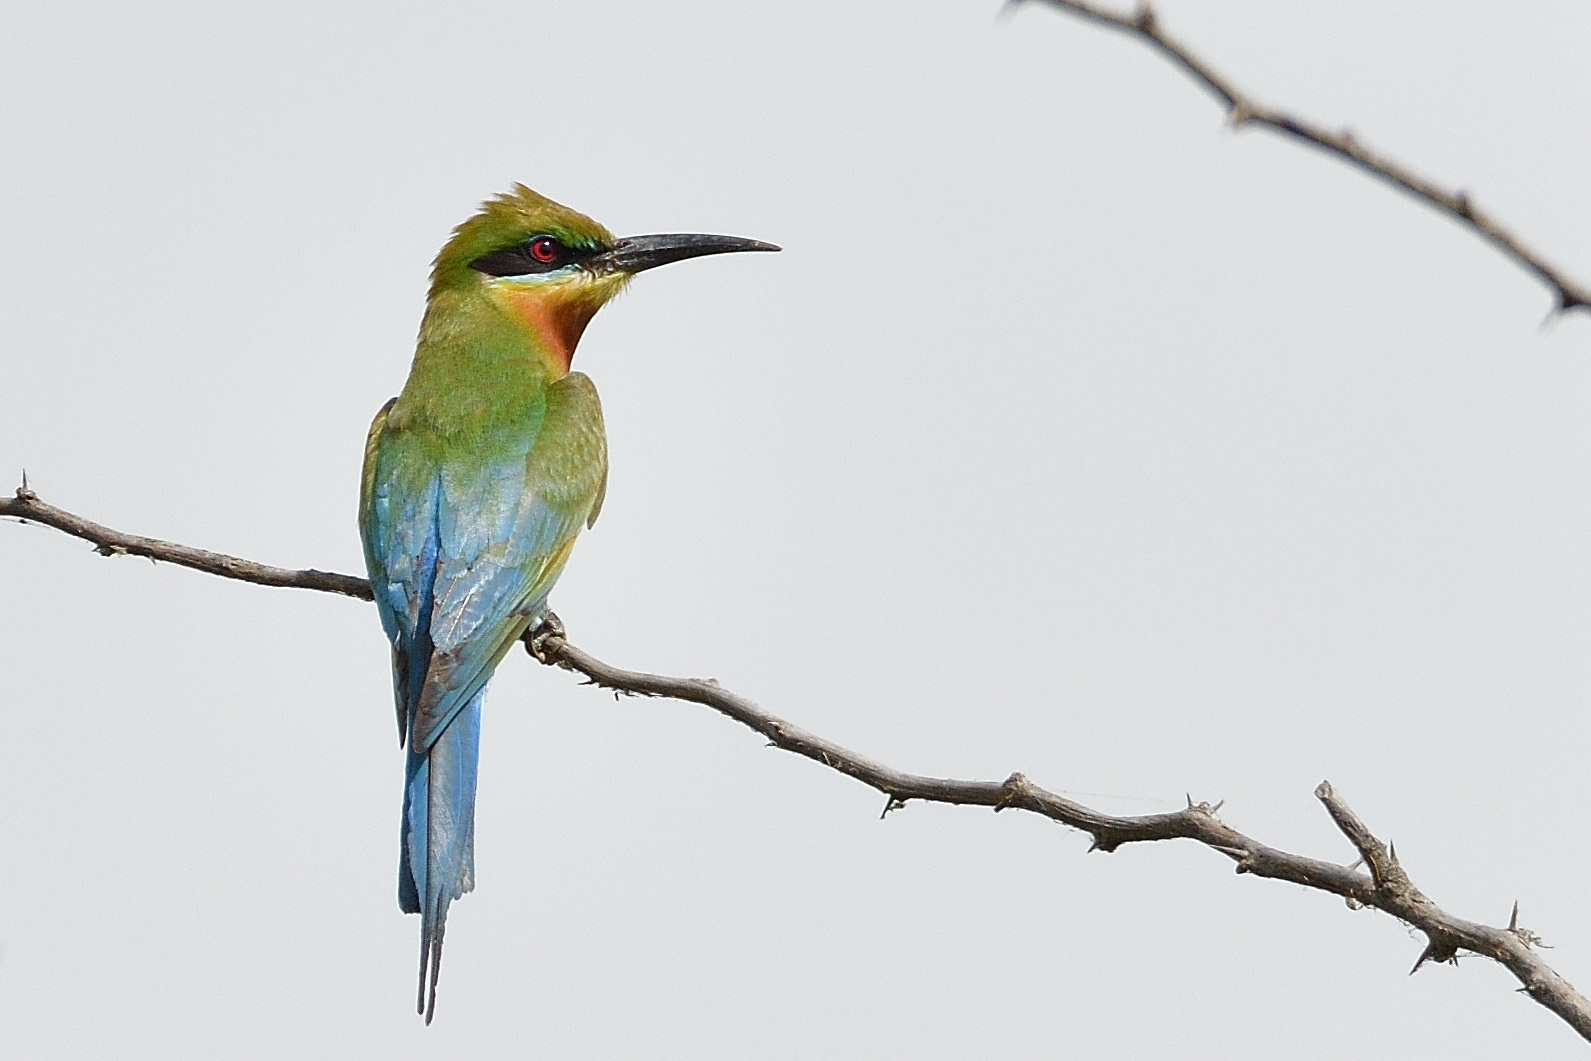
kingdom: Animalia
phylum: Chordata
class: Aves
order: Coraciiformes
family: Meropidae
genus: Merops
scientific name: Merops philippinus
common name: Blue-tailed bee-eater
